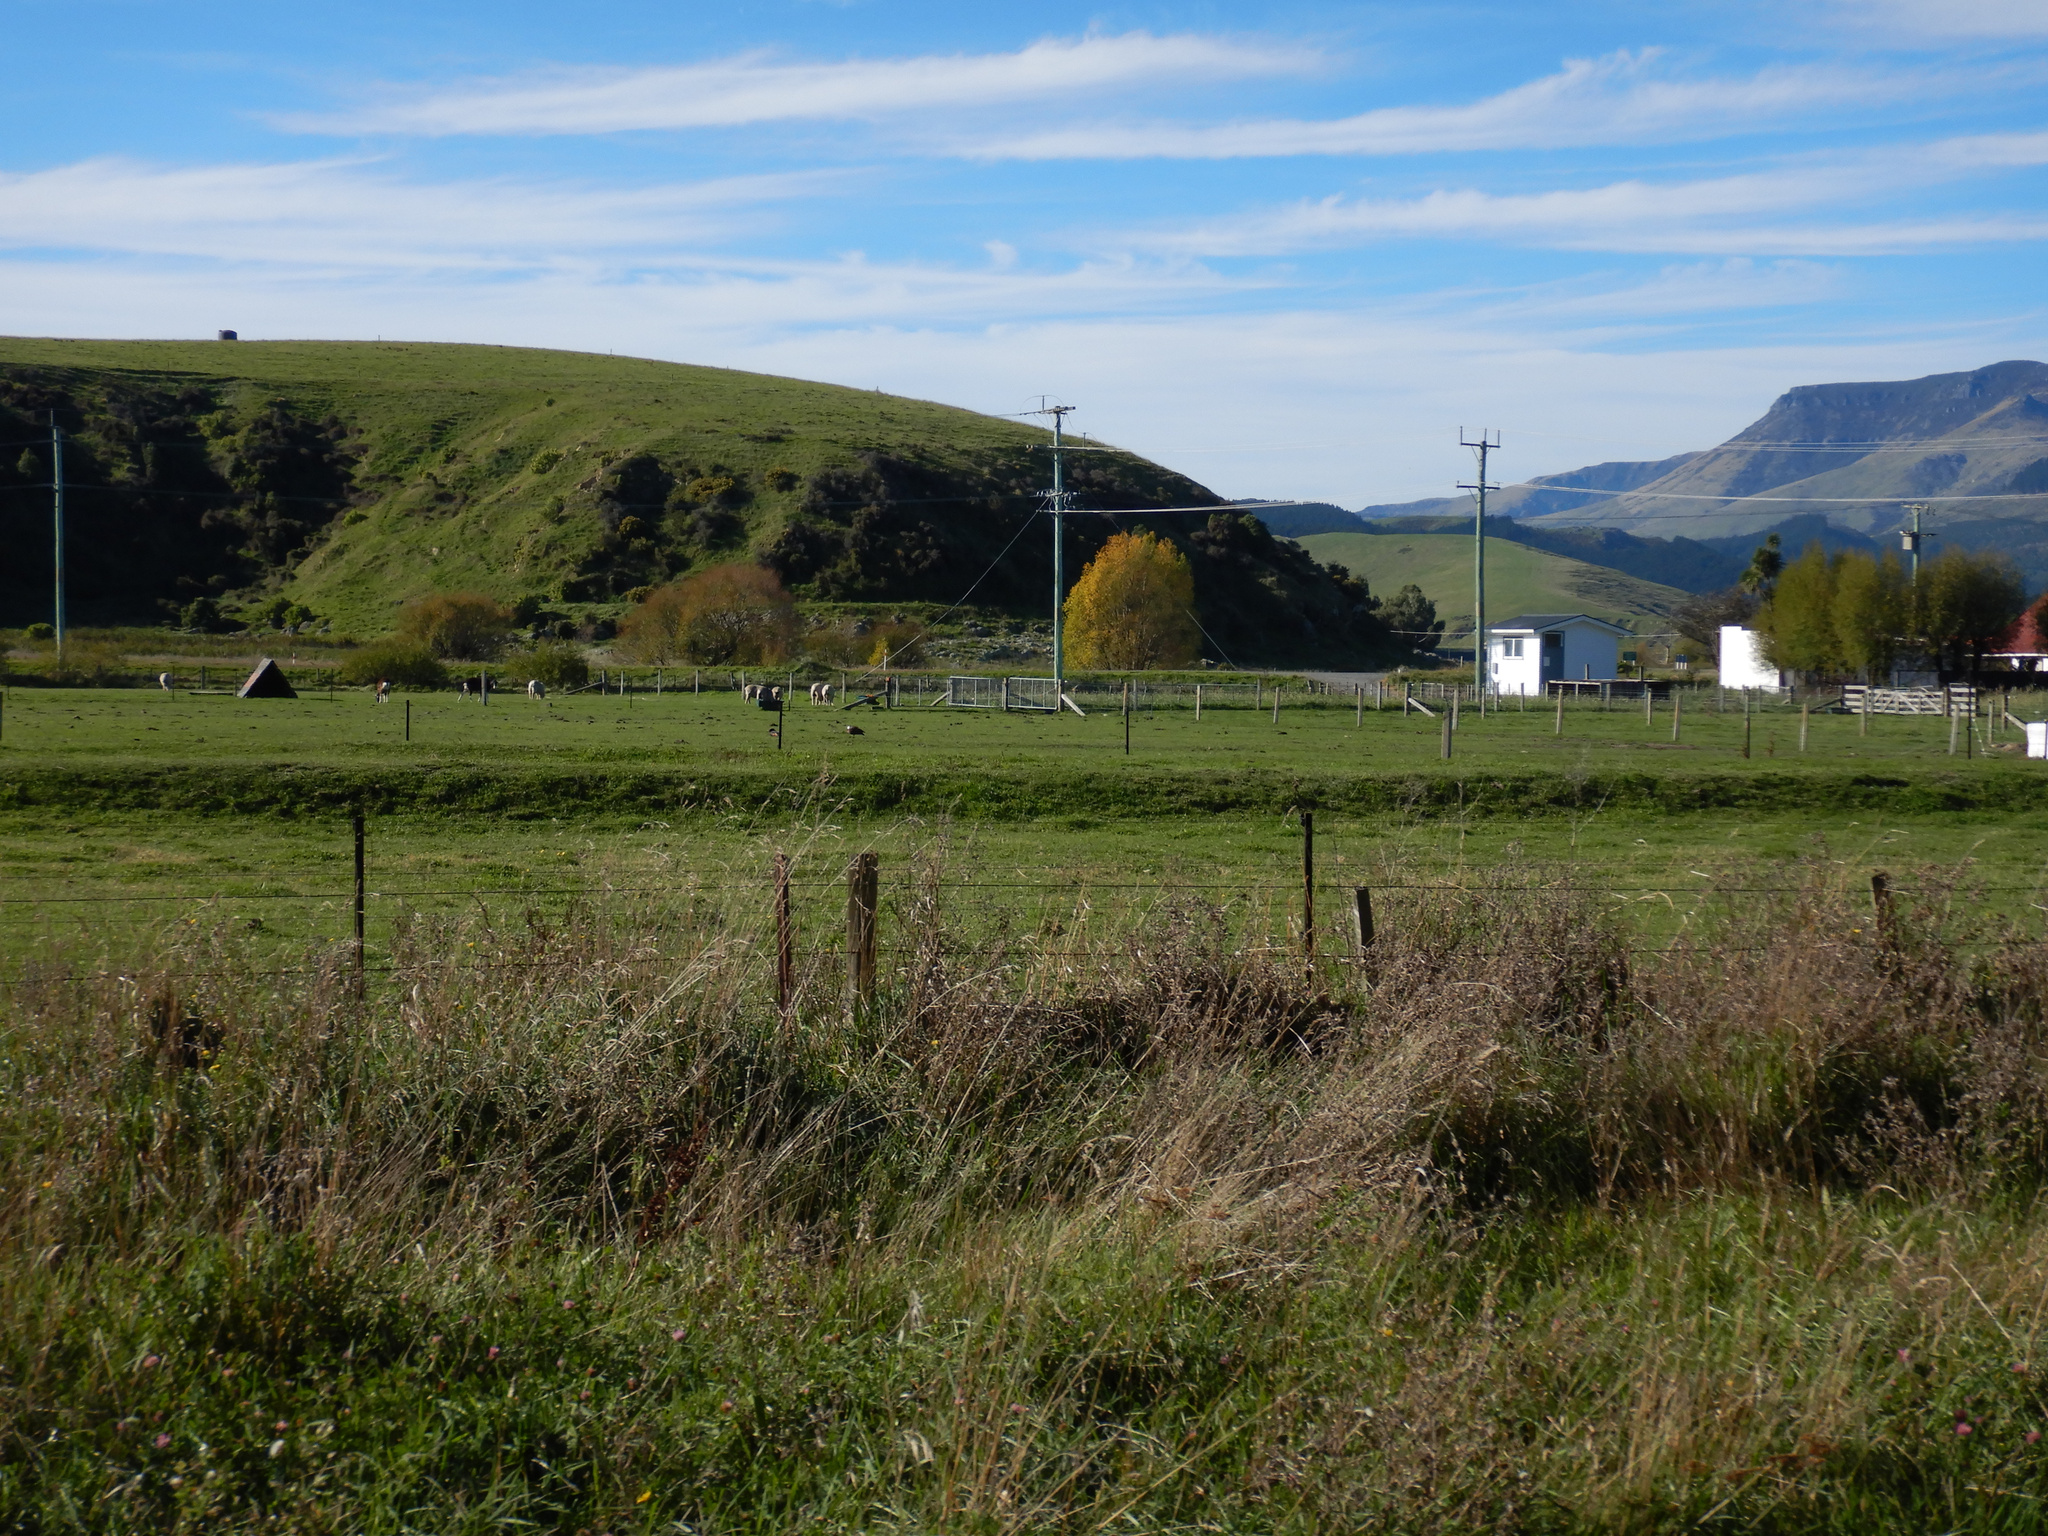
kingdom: Animalia
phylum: Chordata
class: Aves
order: Anseriformes
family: Anatidae
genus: Tadorna
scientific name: Tadorna variegata
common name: Paradise shelduck
